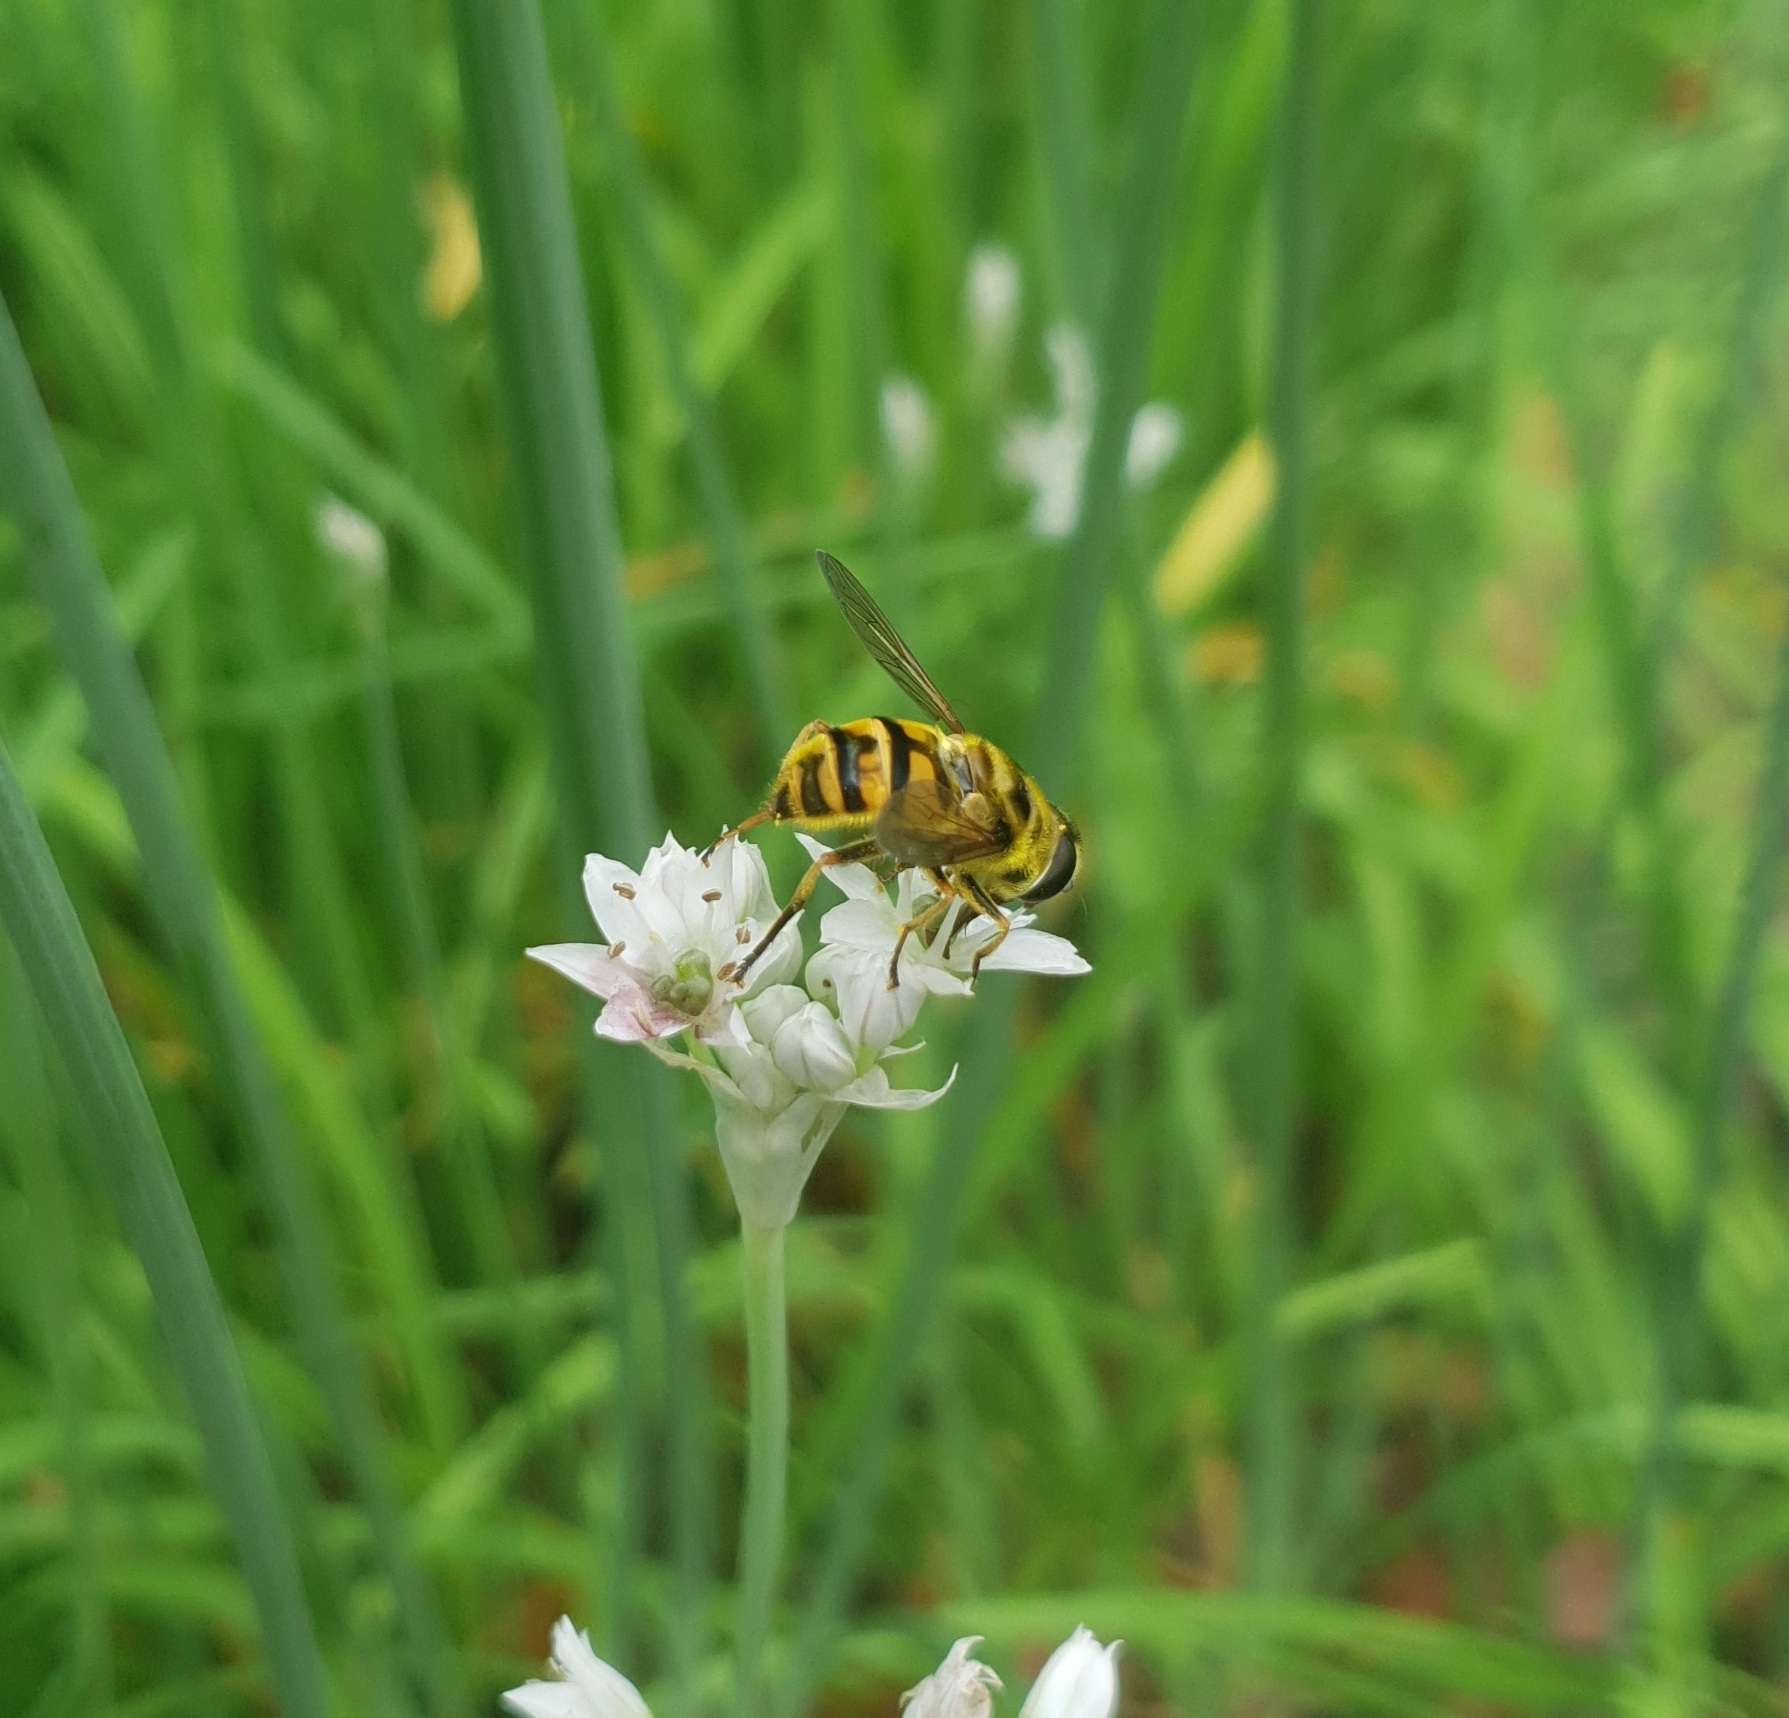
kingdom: Animalia
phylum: Arthropoda
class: Insecta
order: Diptera
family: Syrphidae
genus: Myathropa
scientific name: Myathropa florea
